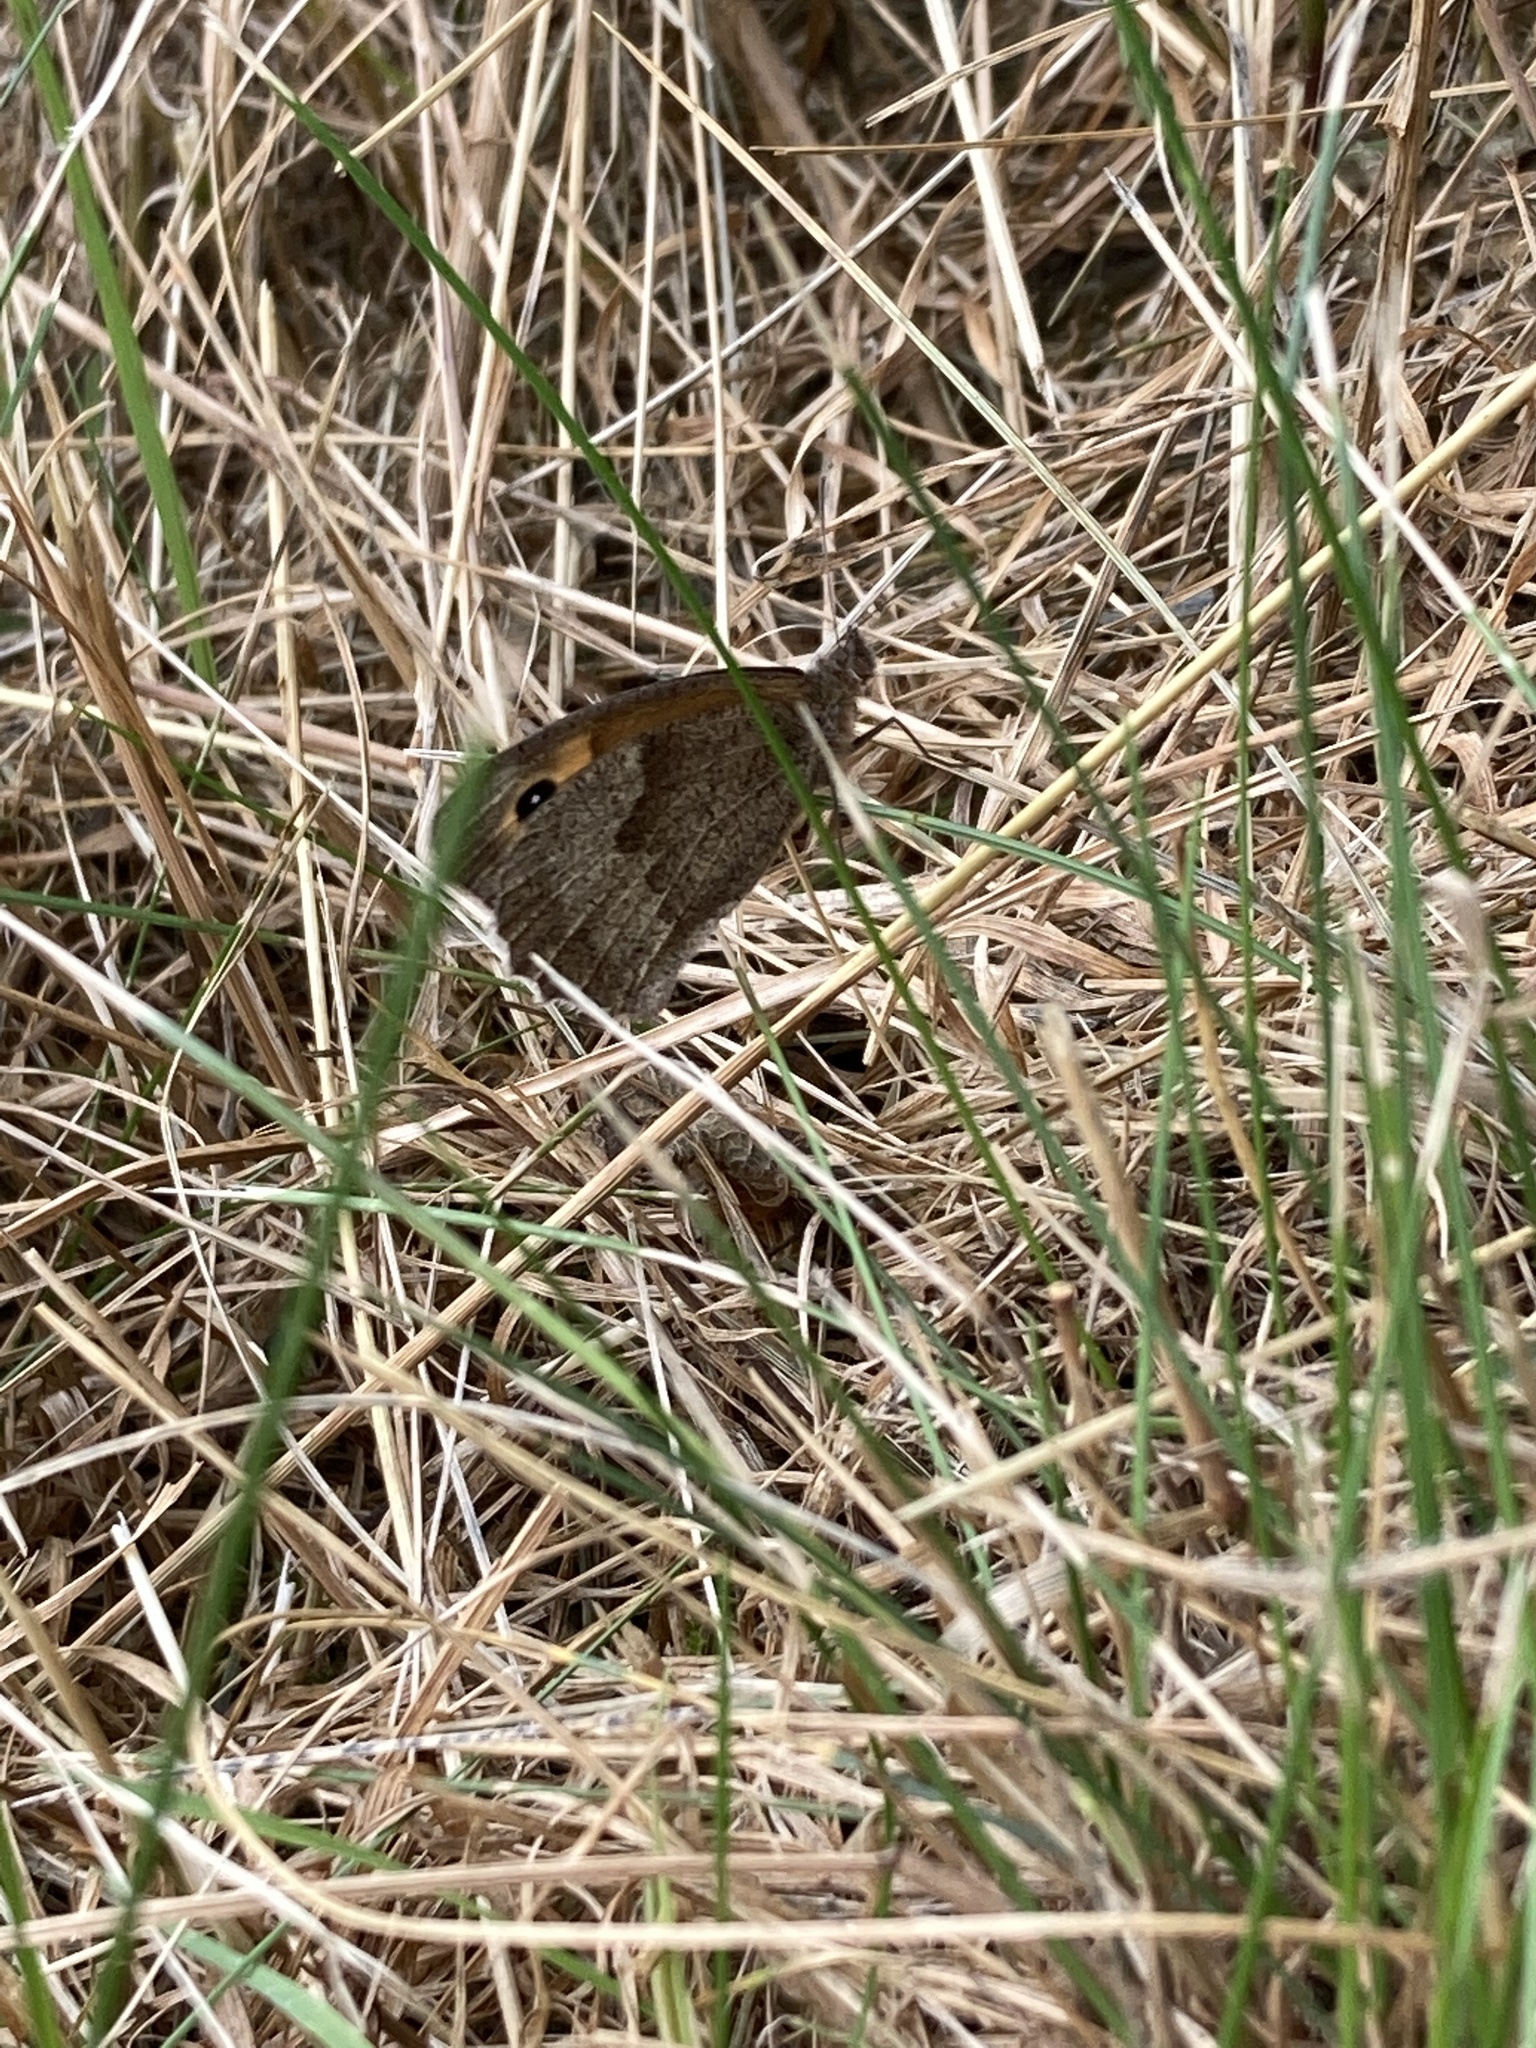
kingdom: Animalia
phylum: Arthropoda
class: Insecta
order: Lepidoptera
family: Nymphalidae
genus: Maniola
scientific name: Maniola jurtina
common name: Meadow brown
